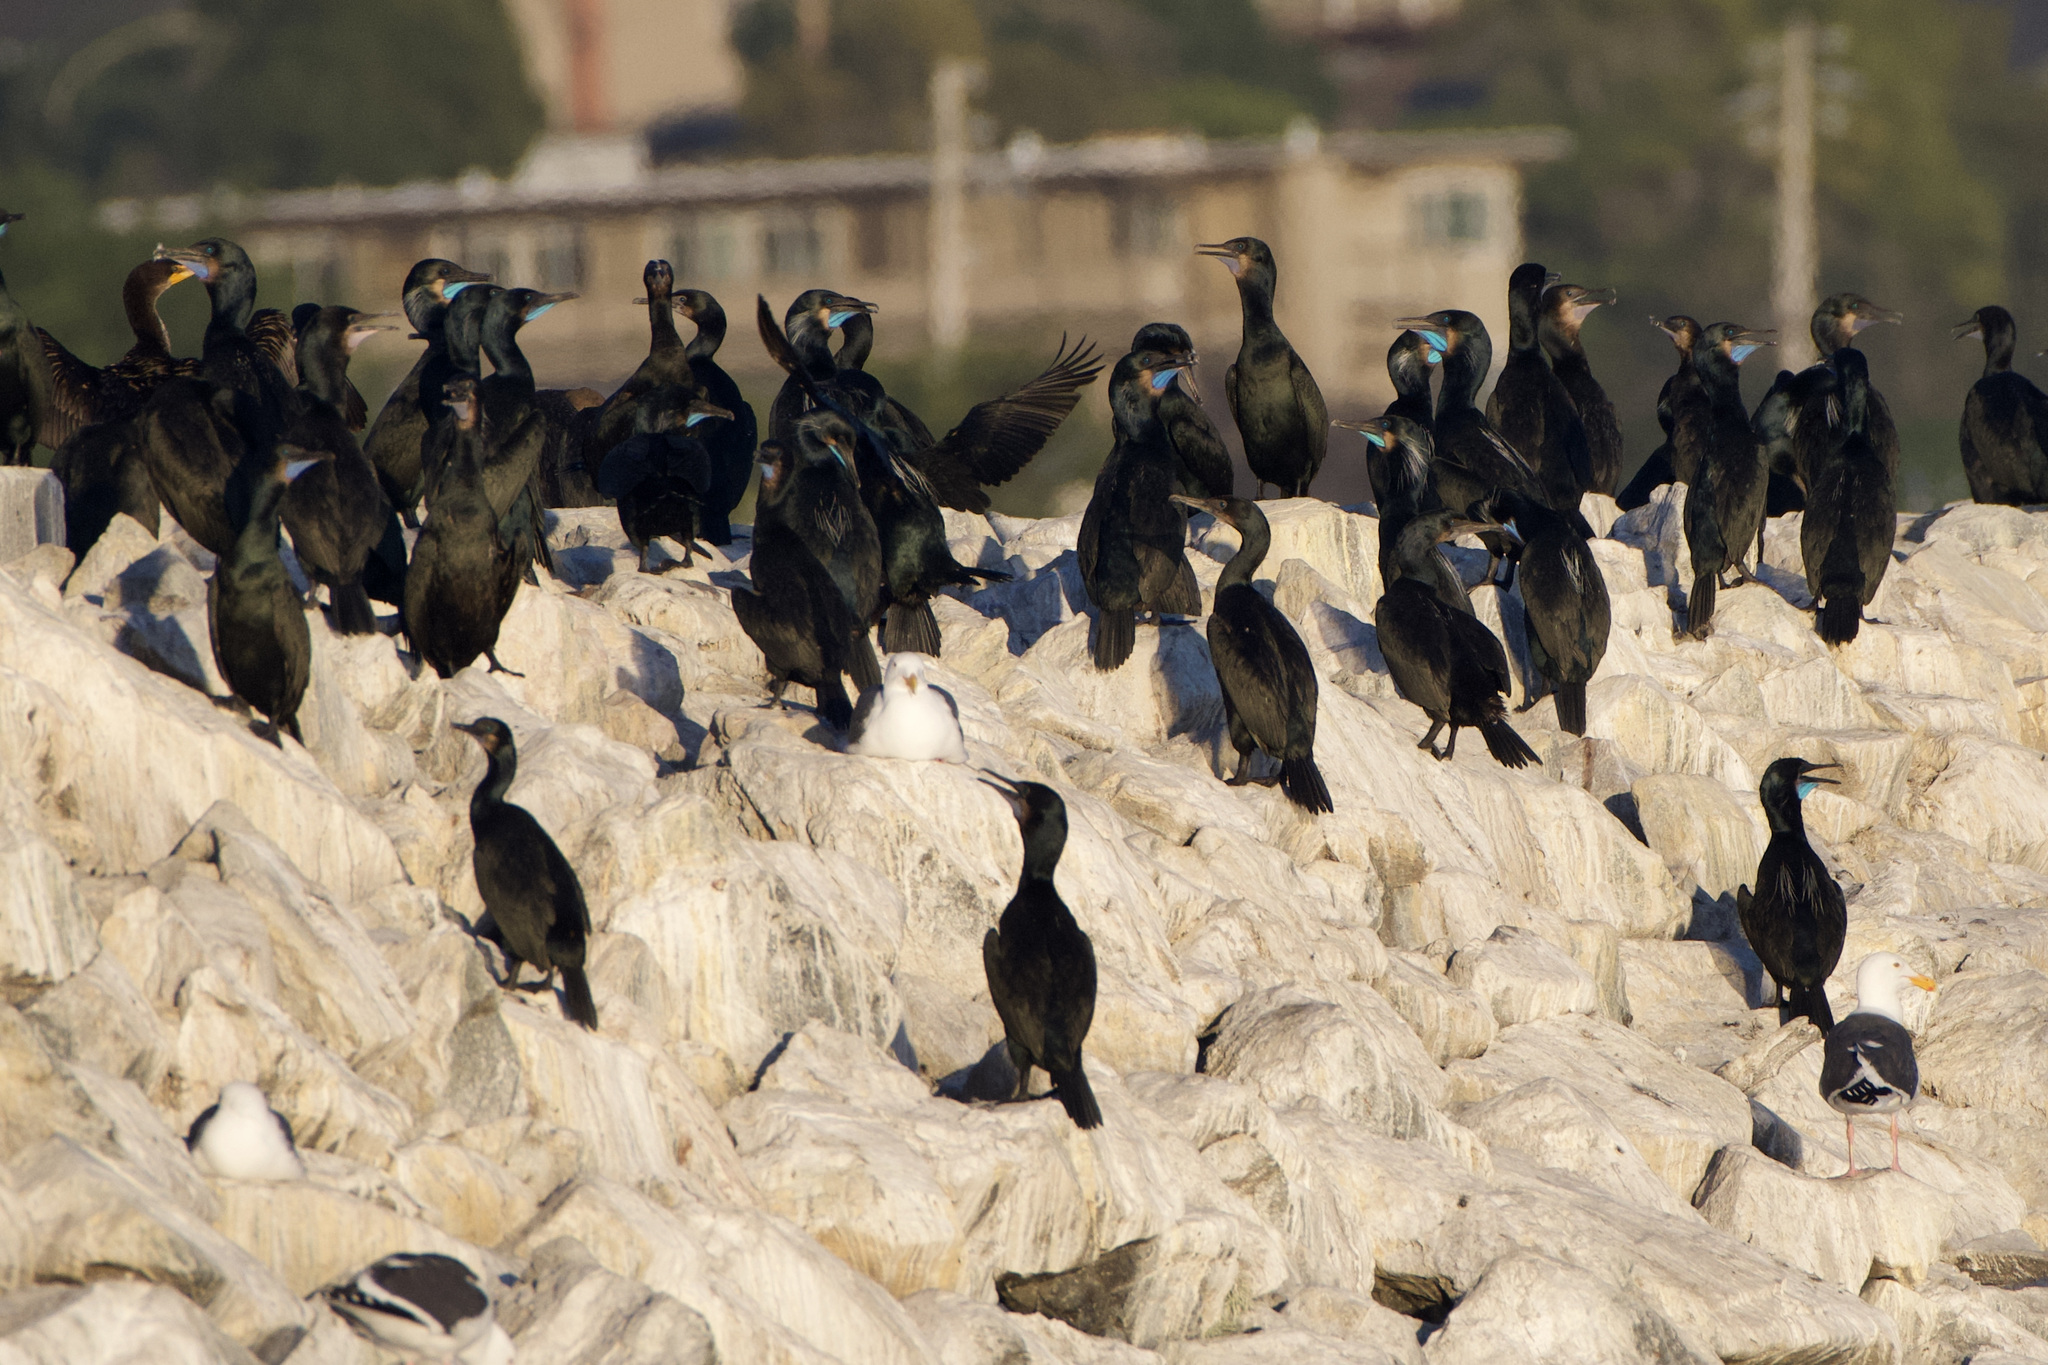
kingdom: Animalia
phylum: Chordata
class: Aves
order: Suliformes
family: Phalacrocoracidae
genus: Urile
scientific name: Urile penicillatus
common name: Brandt's cormorant
